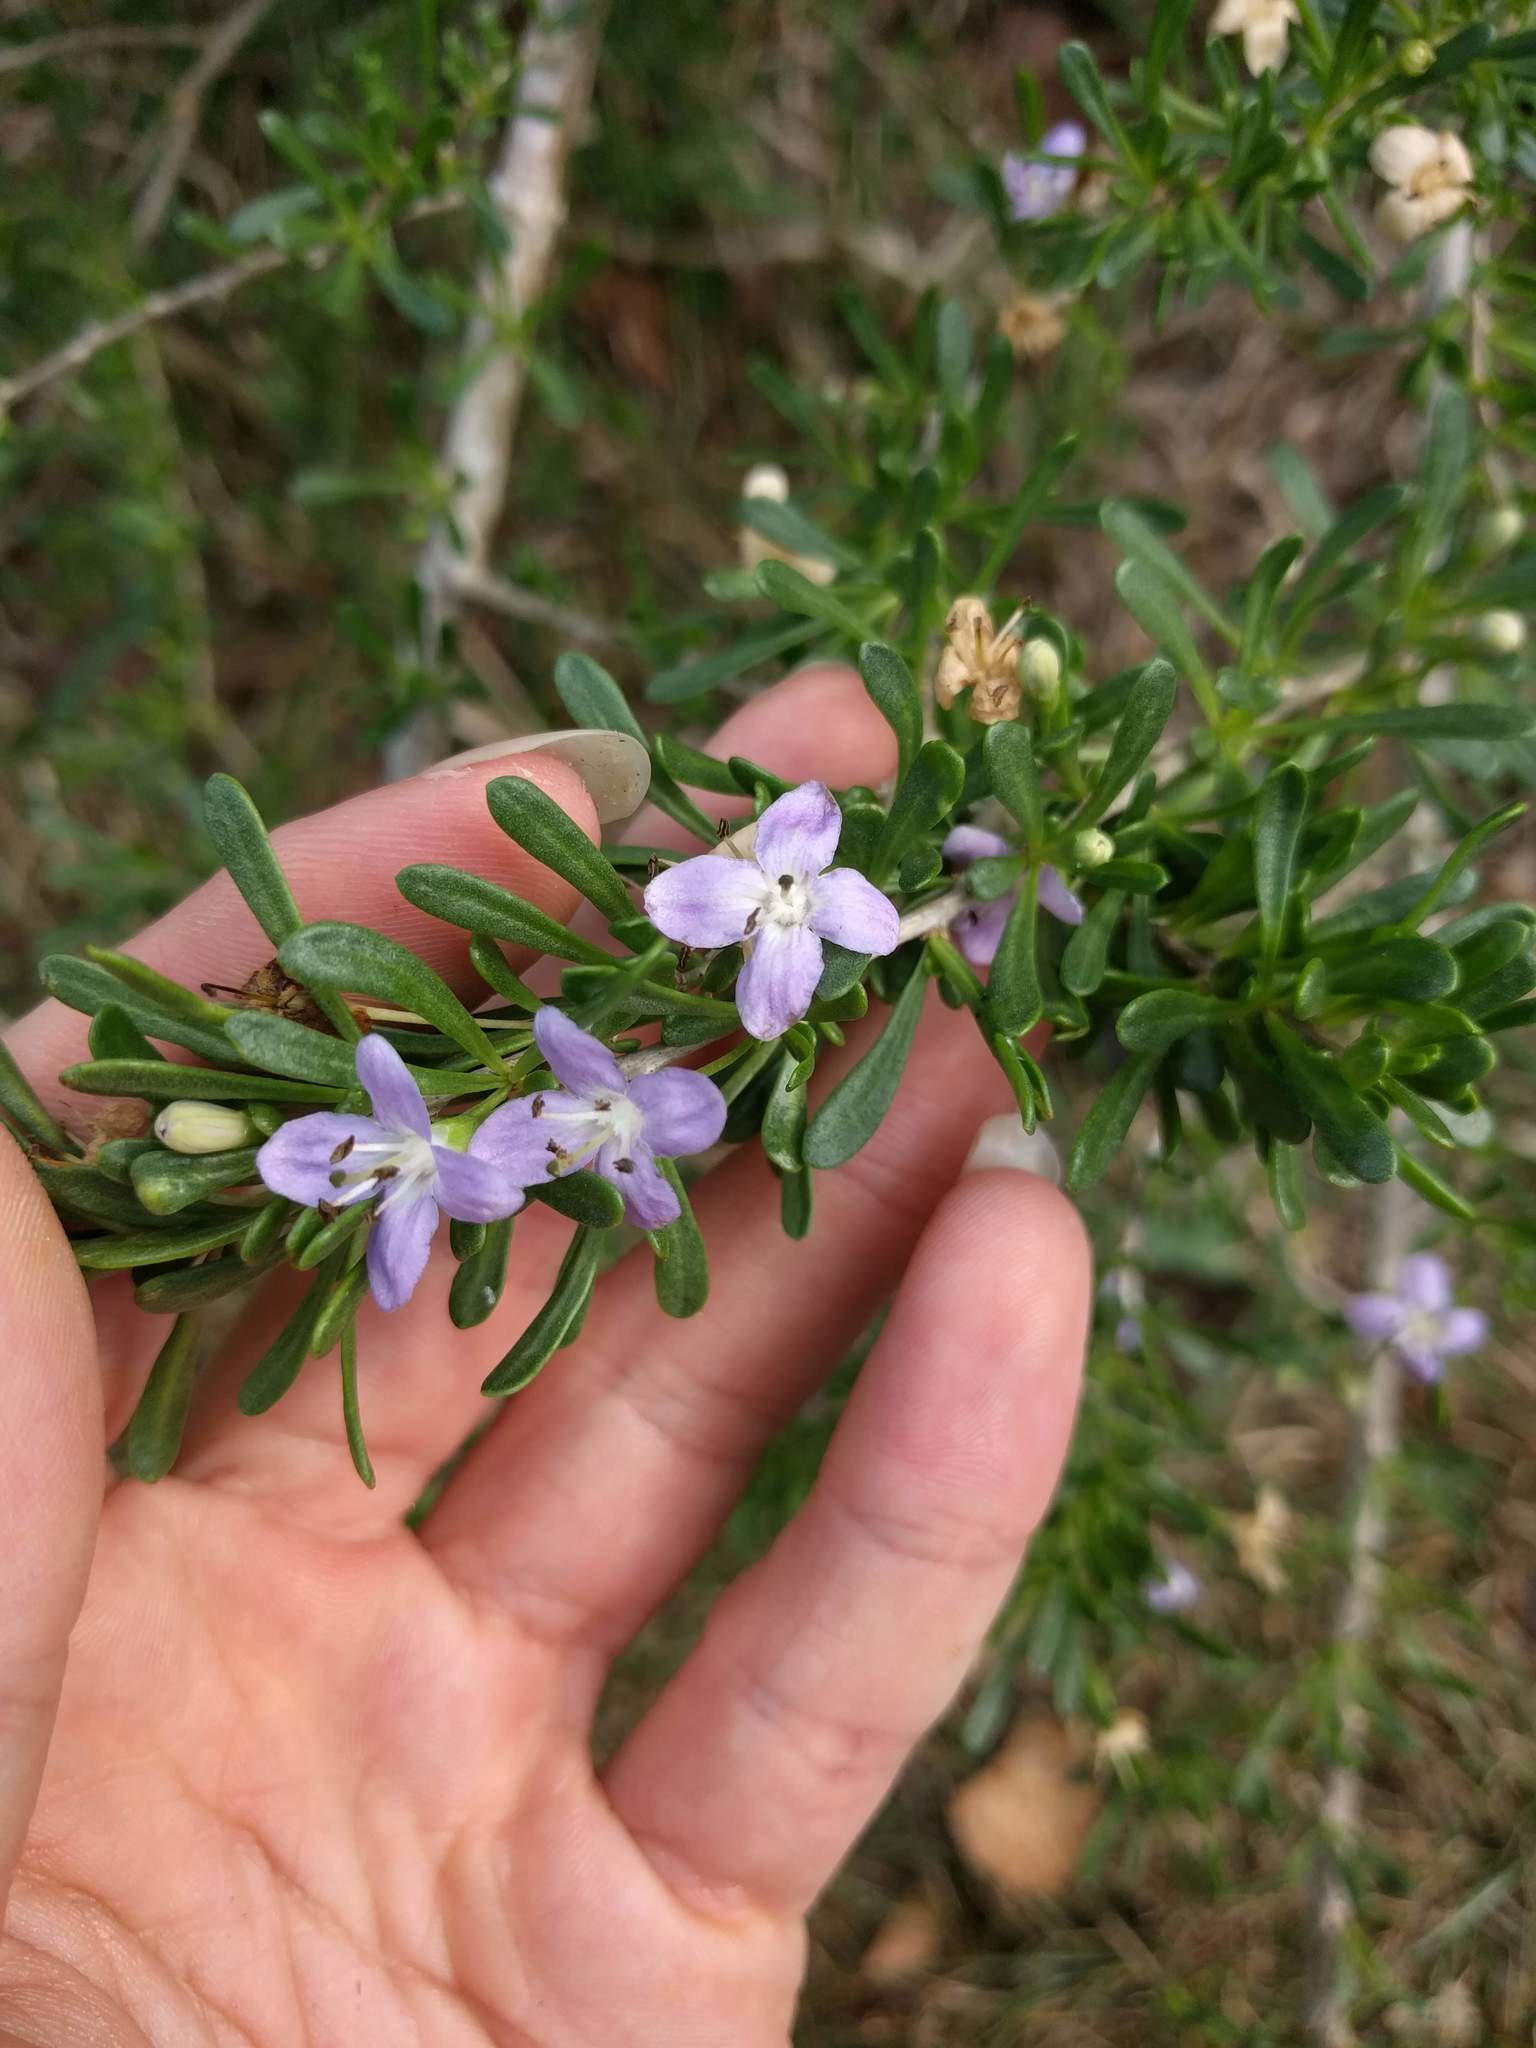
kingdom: Plantae
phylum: Tracheophyta
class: Magnoliopsida
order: Solanales
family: Solanaceae
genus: Lycium
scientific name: Lycium carolinianum
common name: Christmasberry
